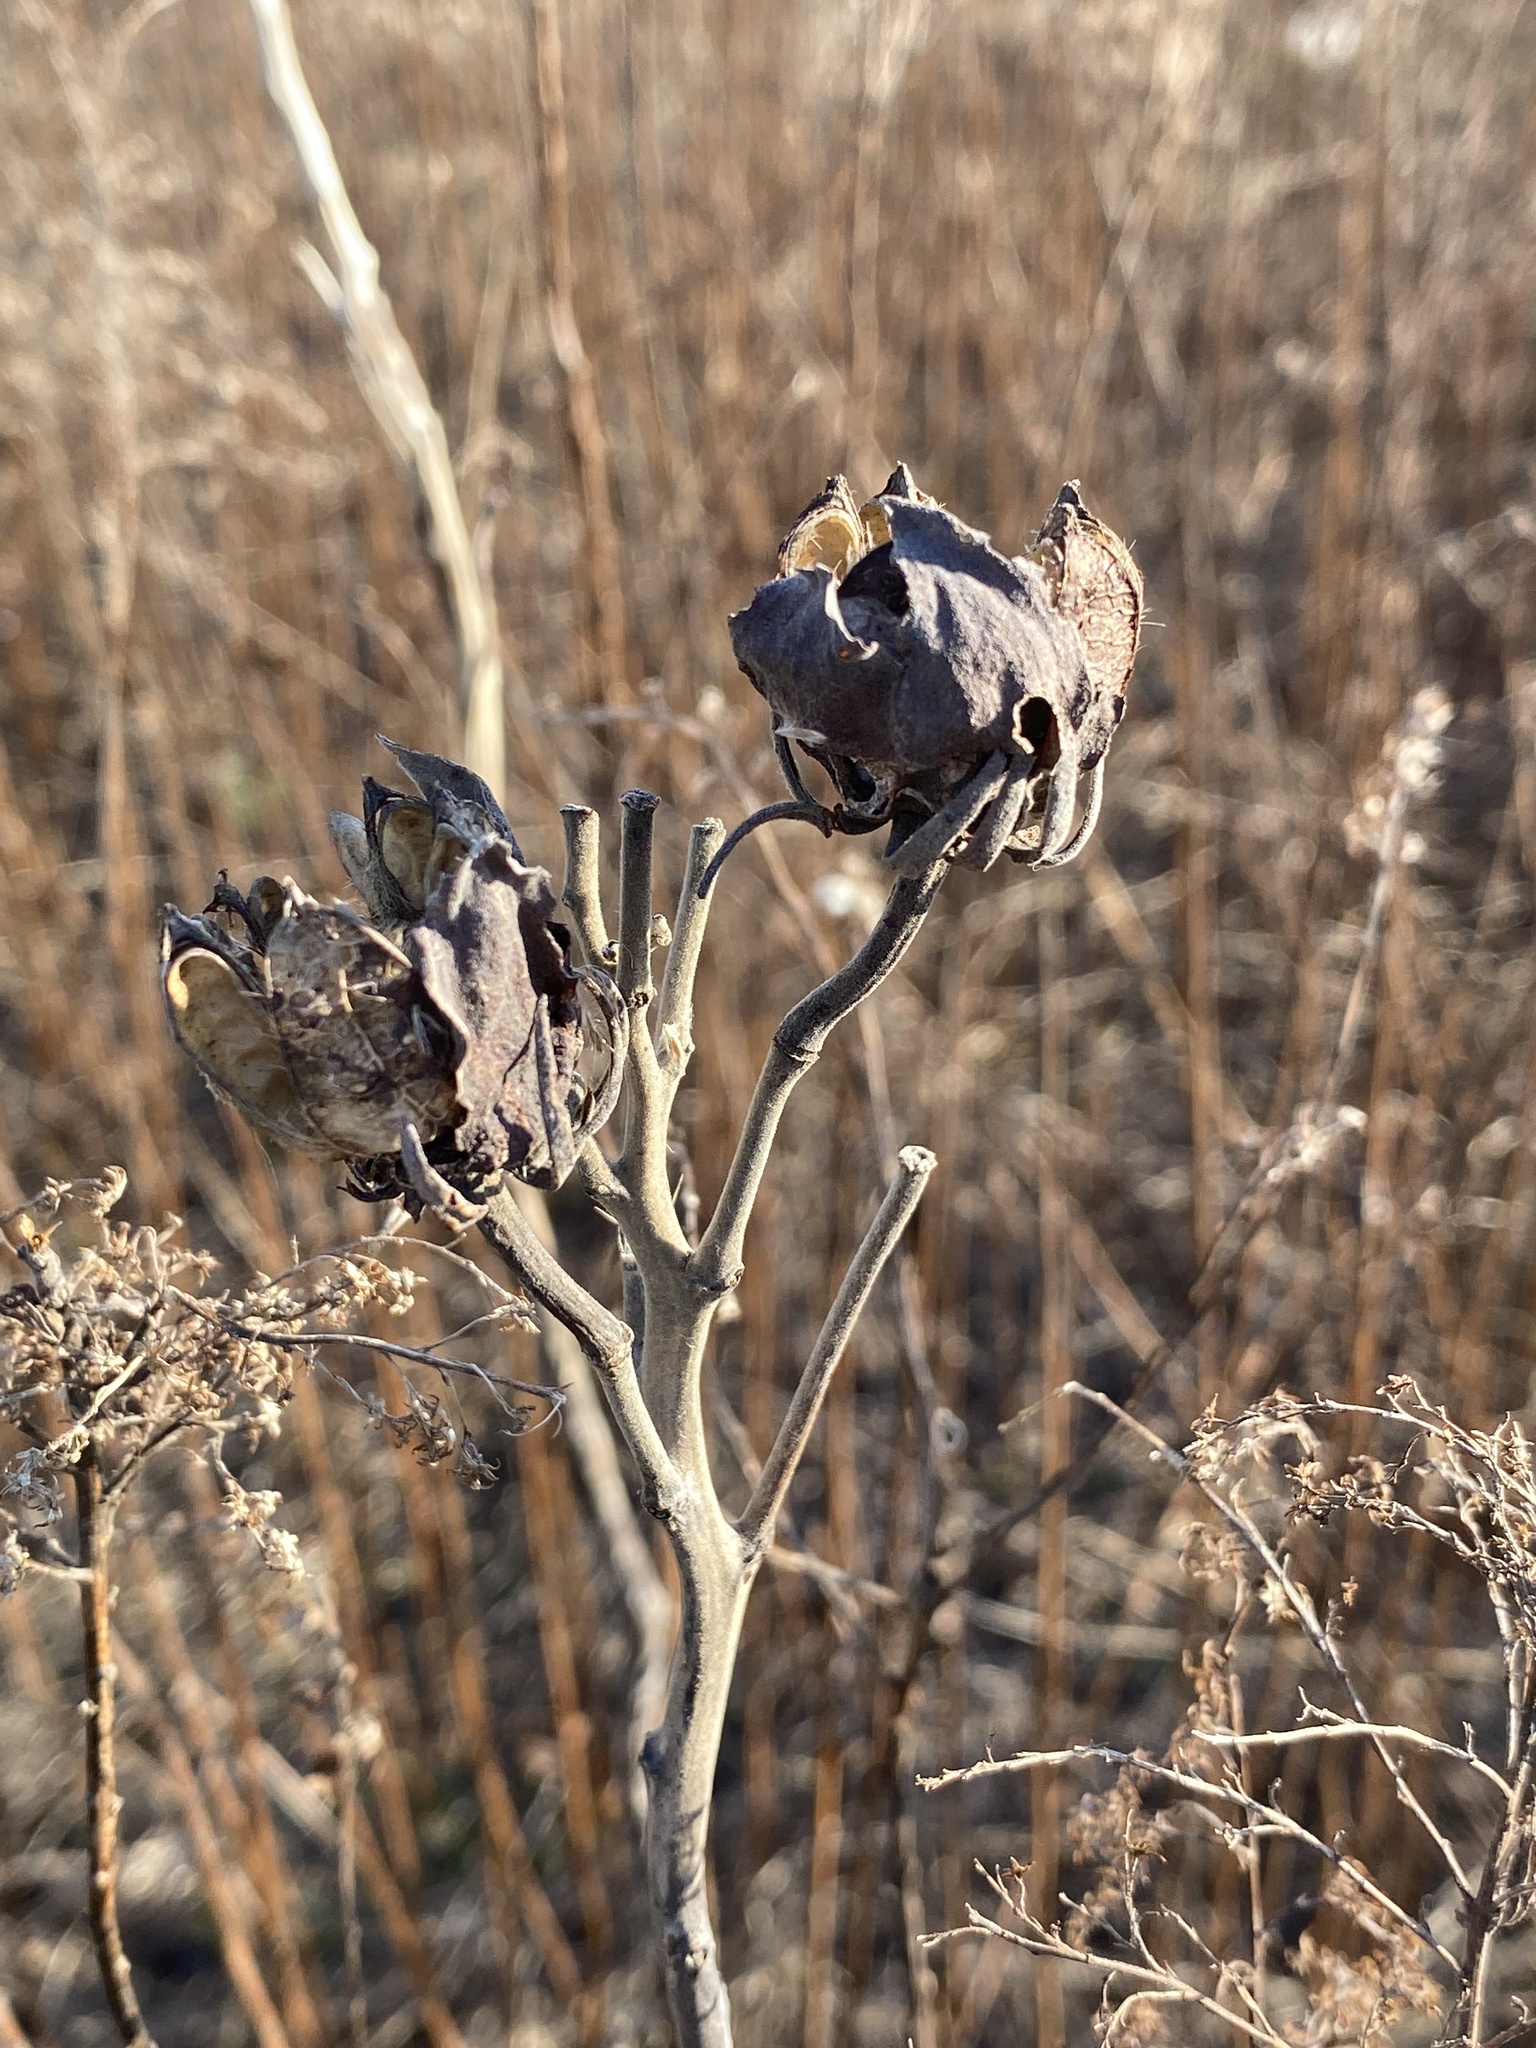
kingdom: Plantae
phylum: Tracheophyta
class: Magnoliopsida
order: Malvales
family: Malvaceae
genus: Hibiscus
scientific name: Hibiscus moscheutos
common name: Common rose-mallow
